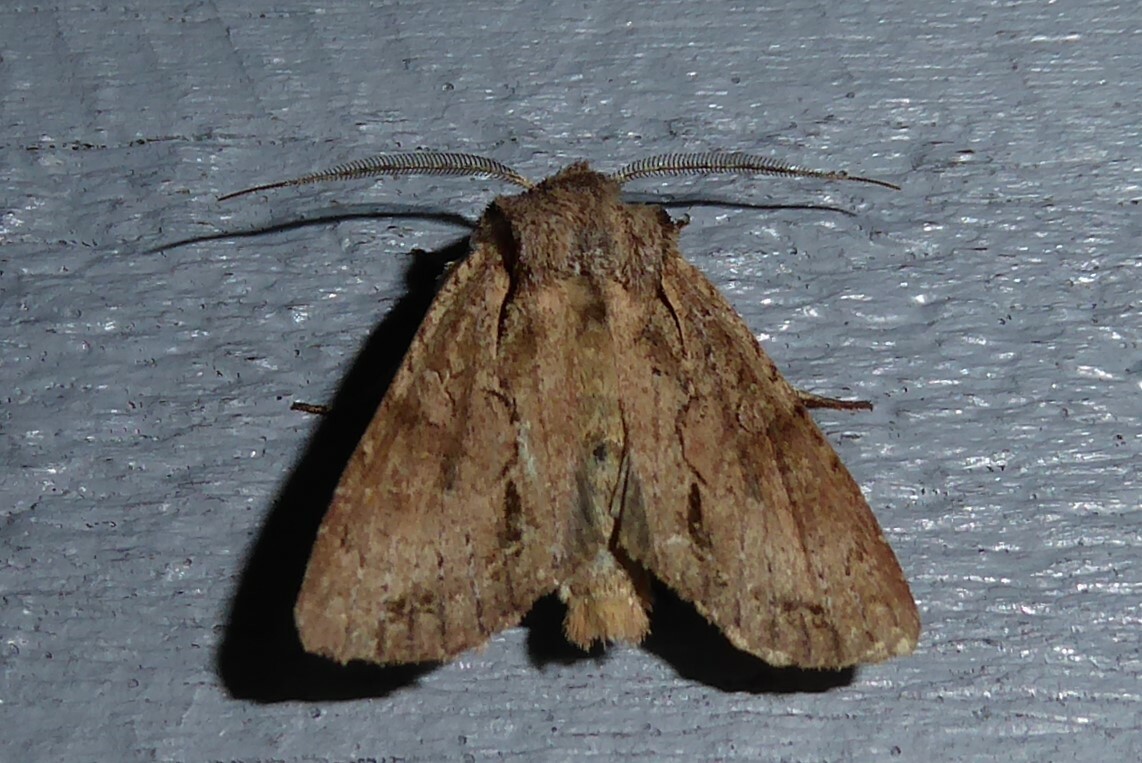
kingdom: Animalia
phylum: Arthropoda
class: Insecta
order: Lepidoptera
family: Noctuidae
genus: Ichneutica
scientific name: Ichneutica
